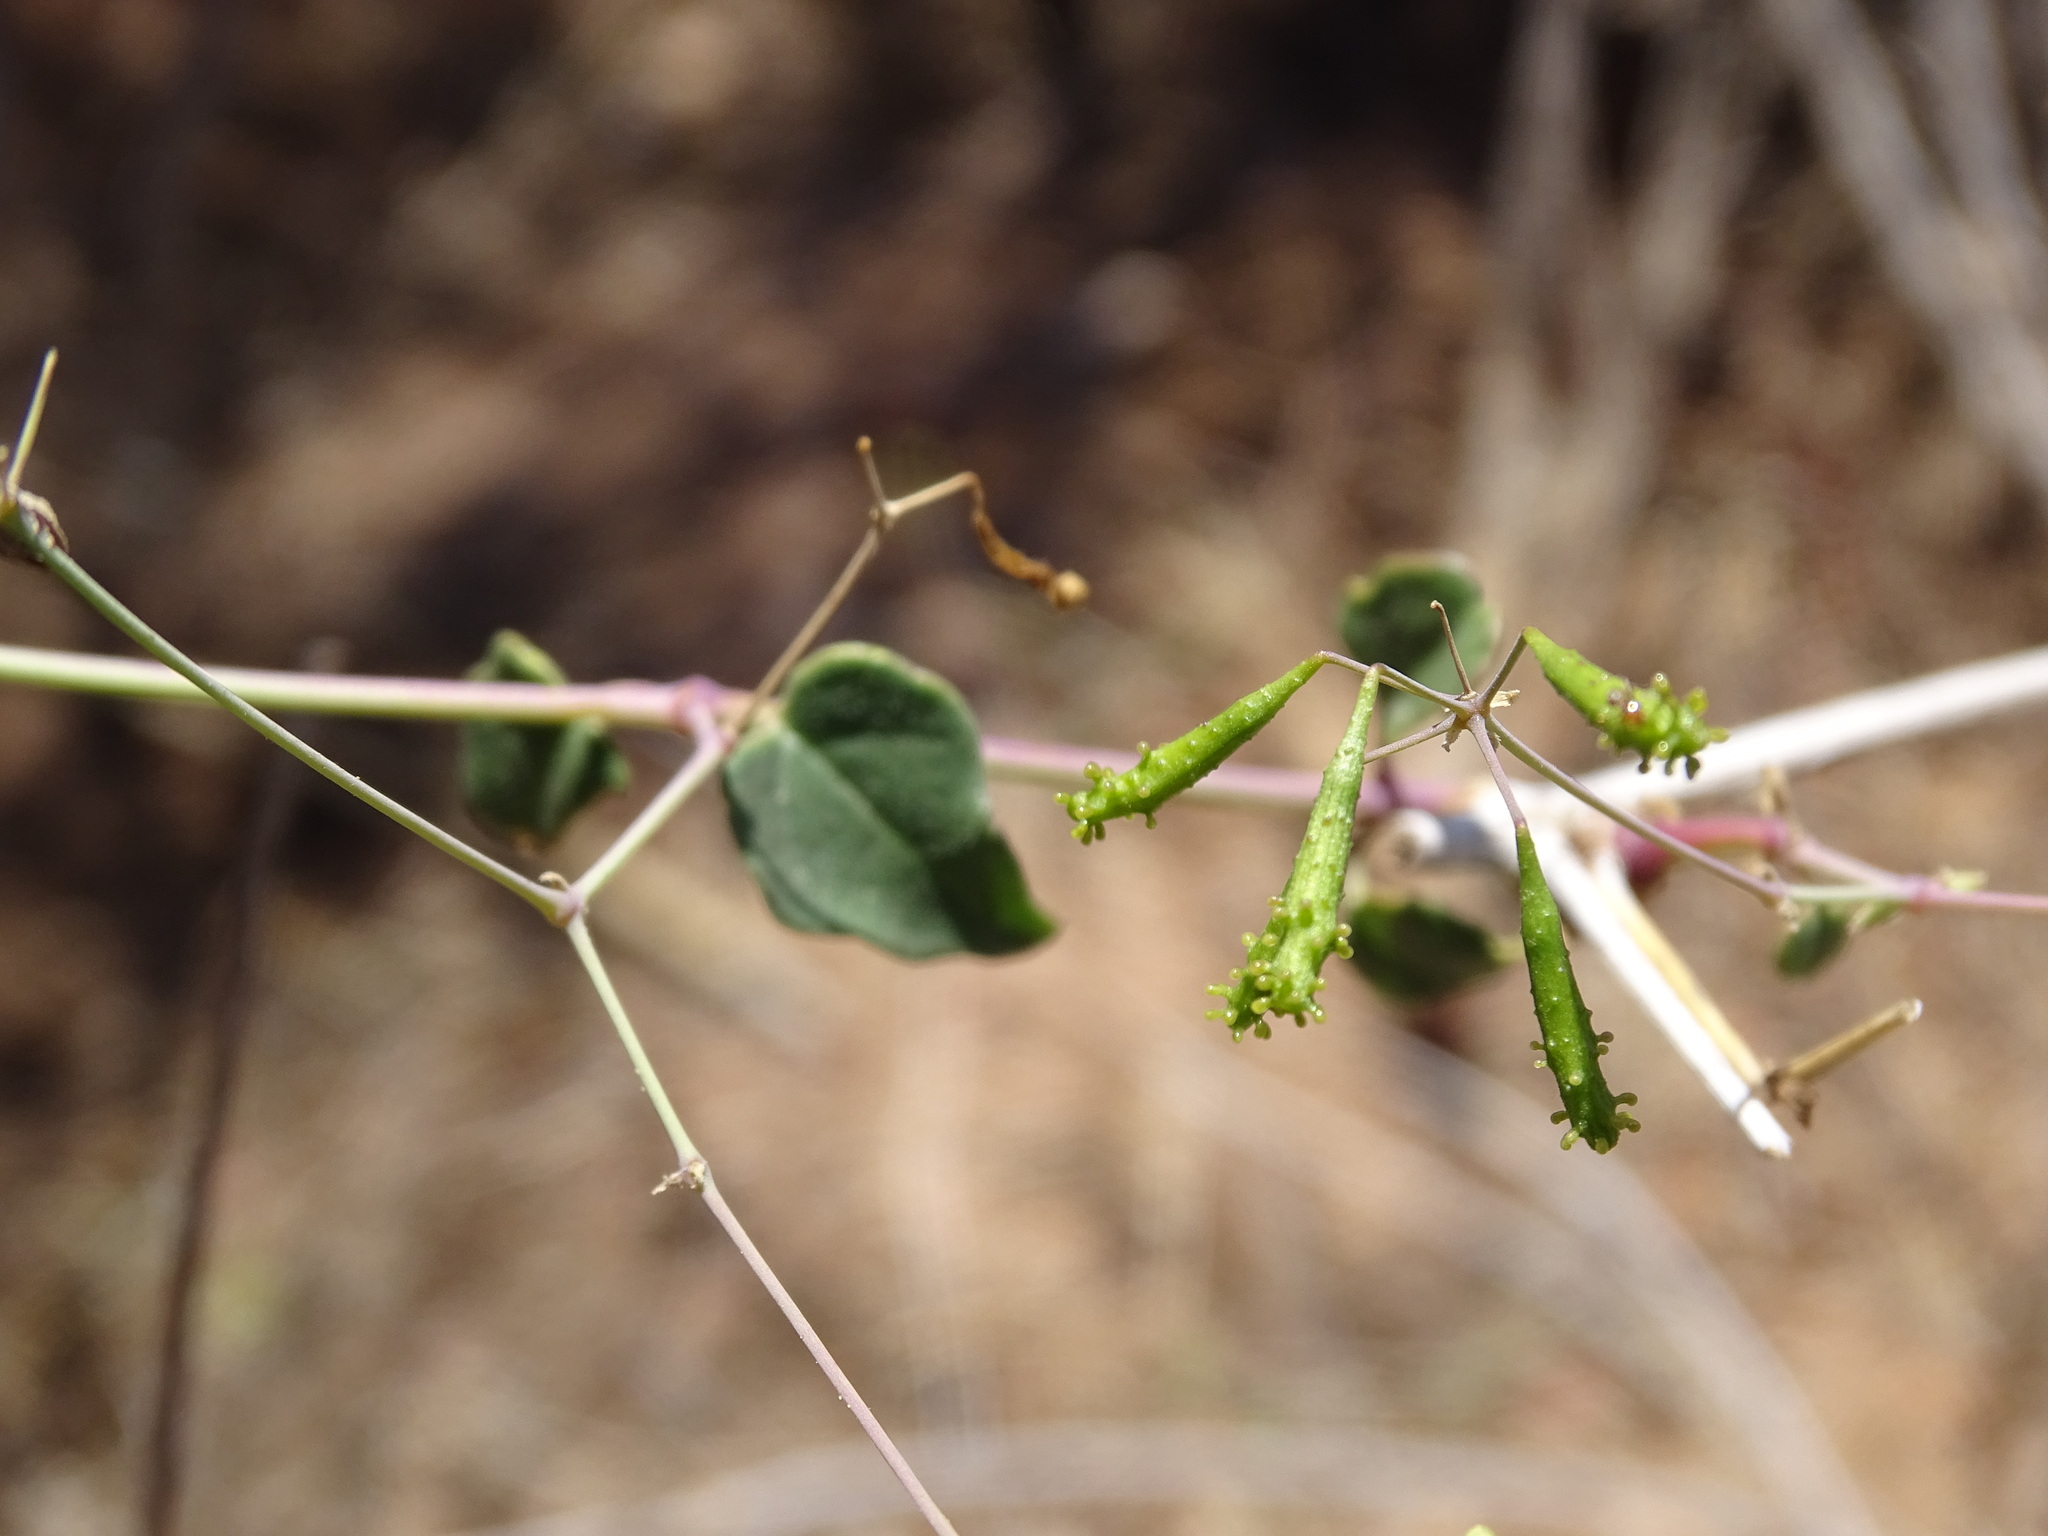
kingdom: Plantae
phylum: Tracheophyta
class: Magnoliopsida
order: Caryophyllales
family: Nyctaginaceae
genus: Commicarpus
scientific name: Commicarpus scandens
